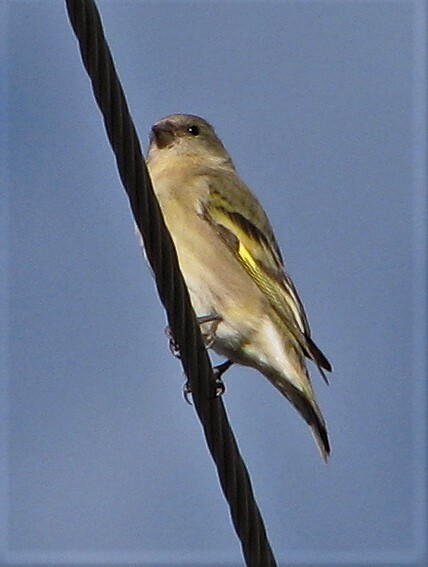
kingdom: Animalia
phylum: Chordata
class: Aves
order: Passeriformes
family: Fringillidae
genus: Spinus
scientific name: Spinus magellanicus
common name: Hooded siskin
